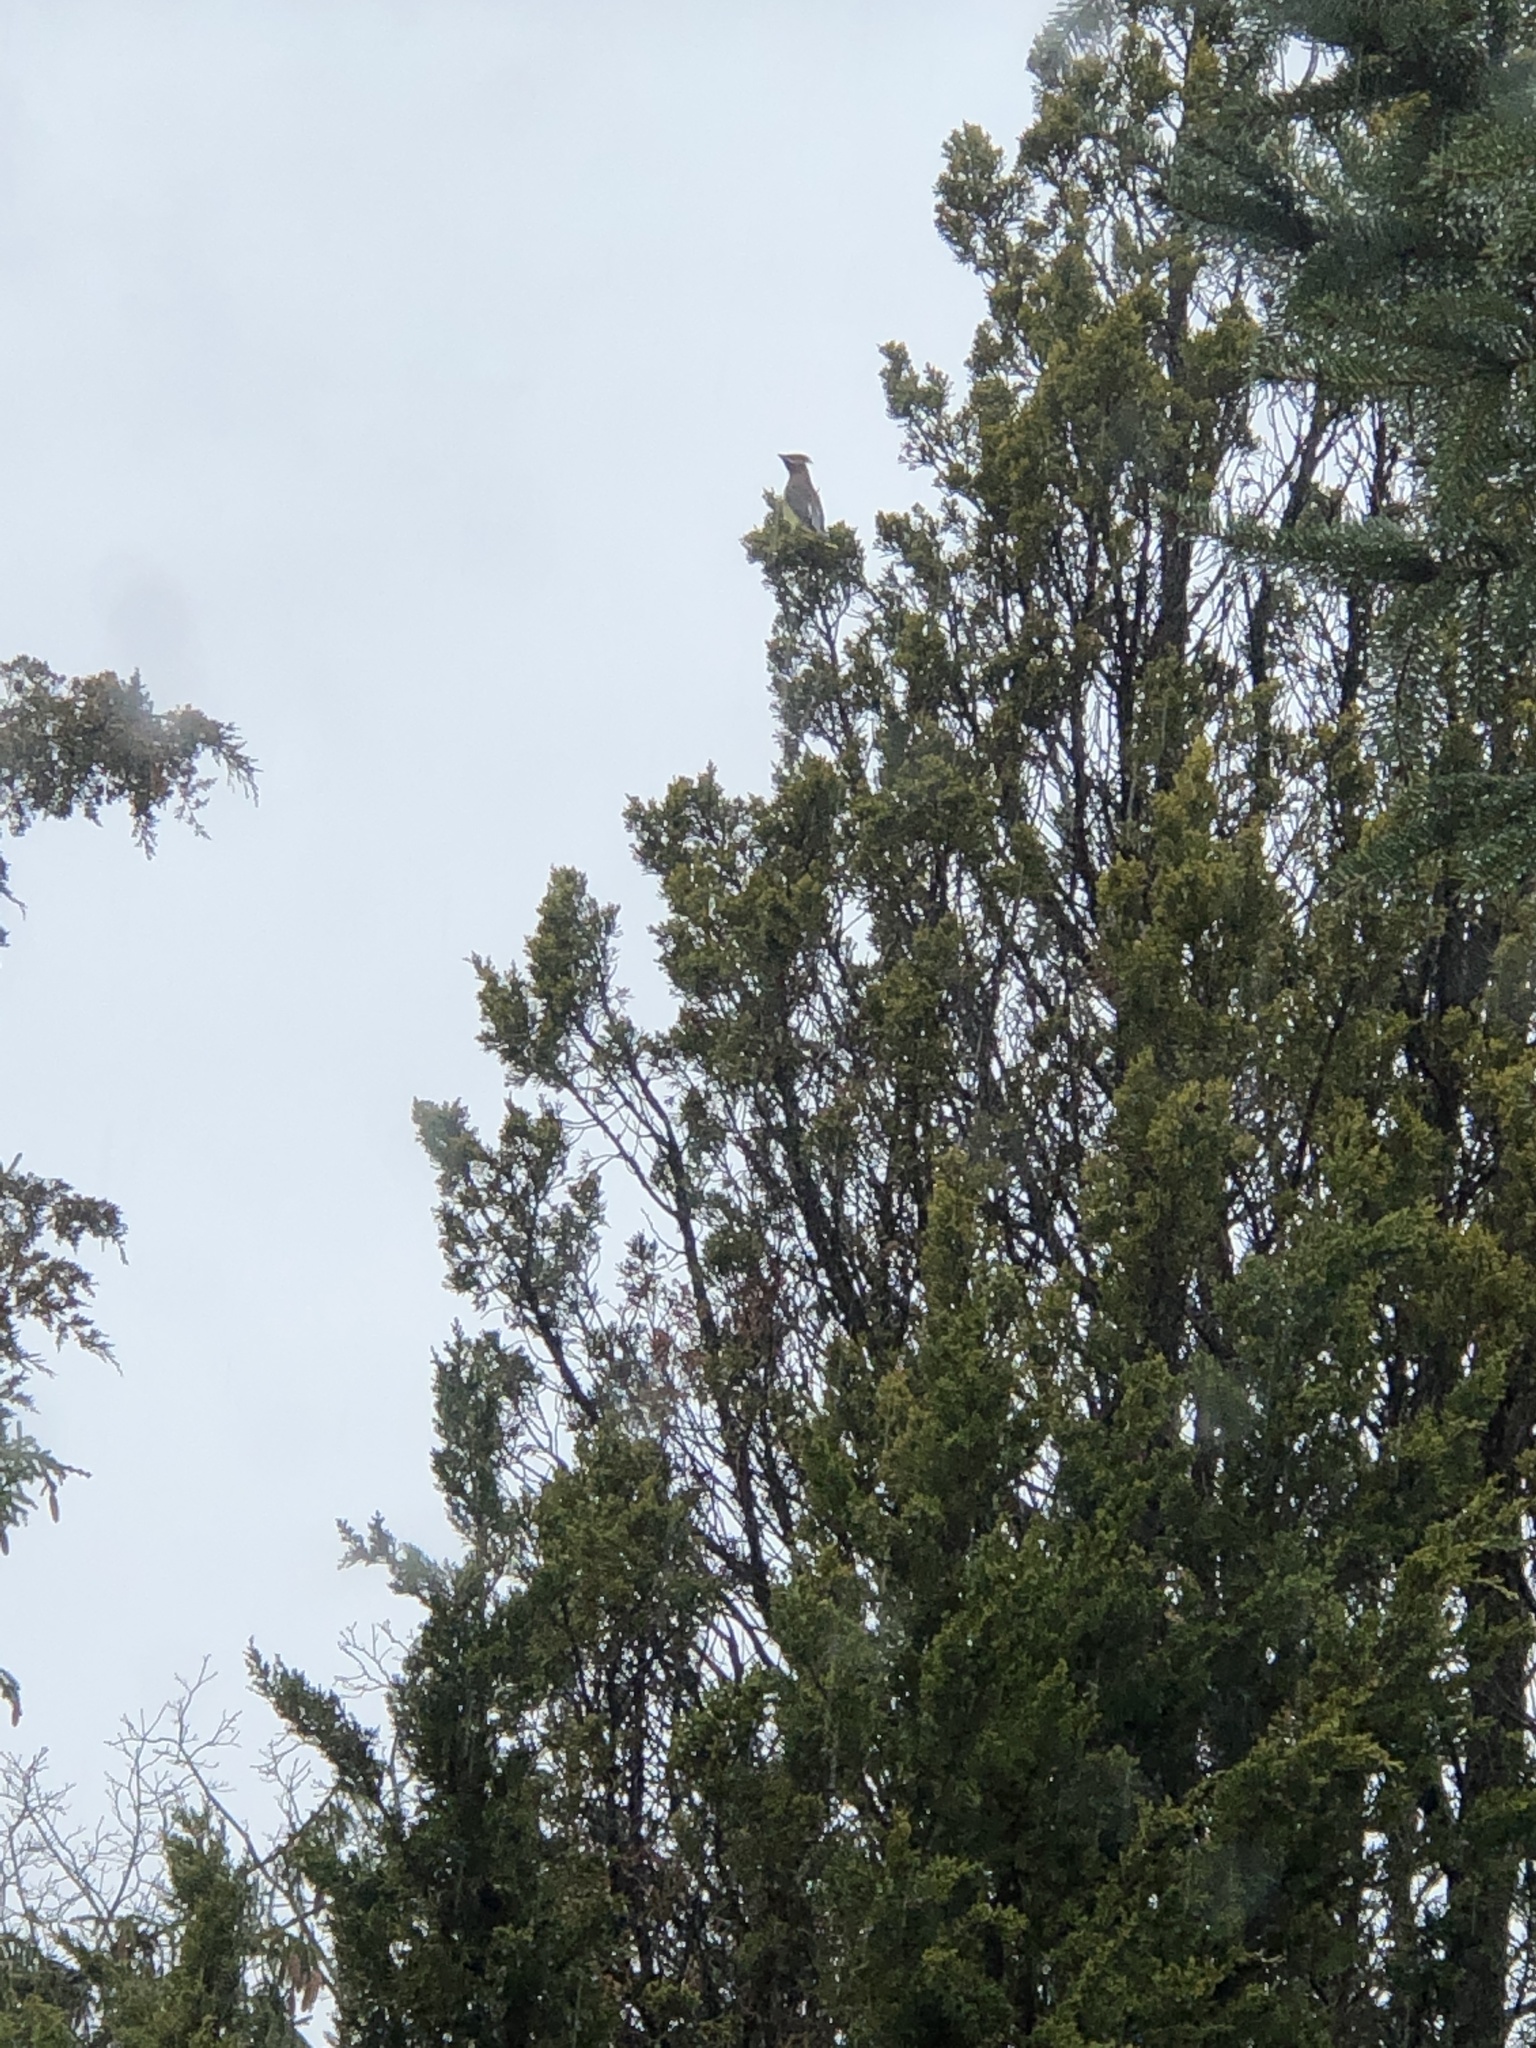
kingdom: Animalia
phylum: Chordata
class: Aves
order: Passeriformes
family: Bombycillidae
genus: Bombycilla
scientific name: Bombycilla cedrorum
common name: Cedar waxwing
